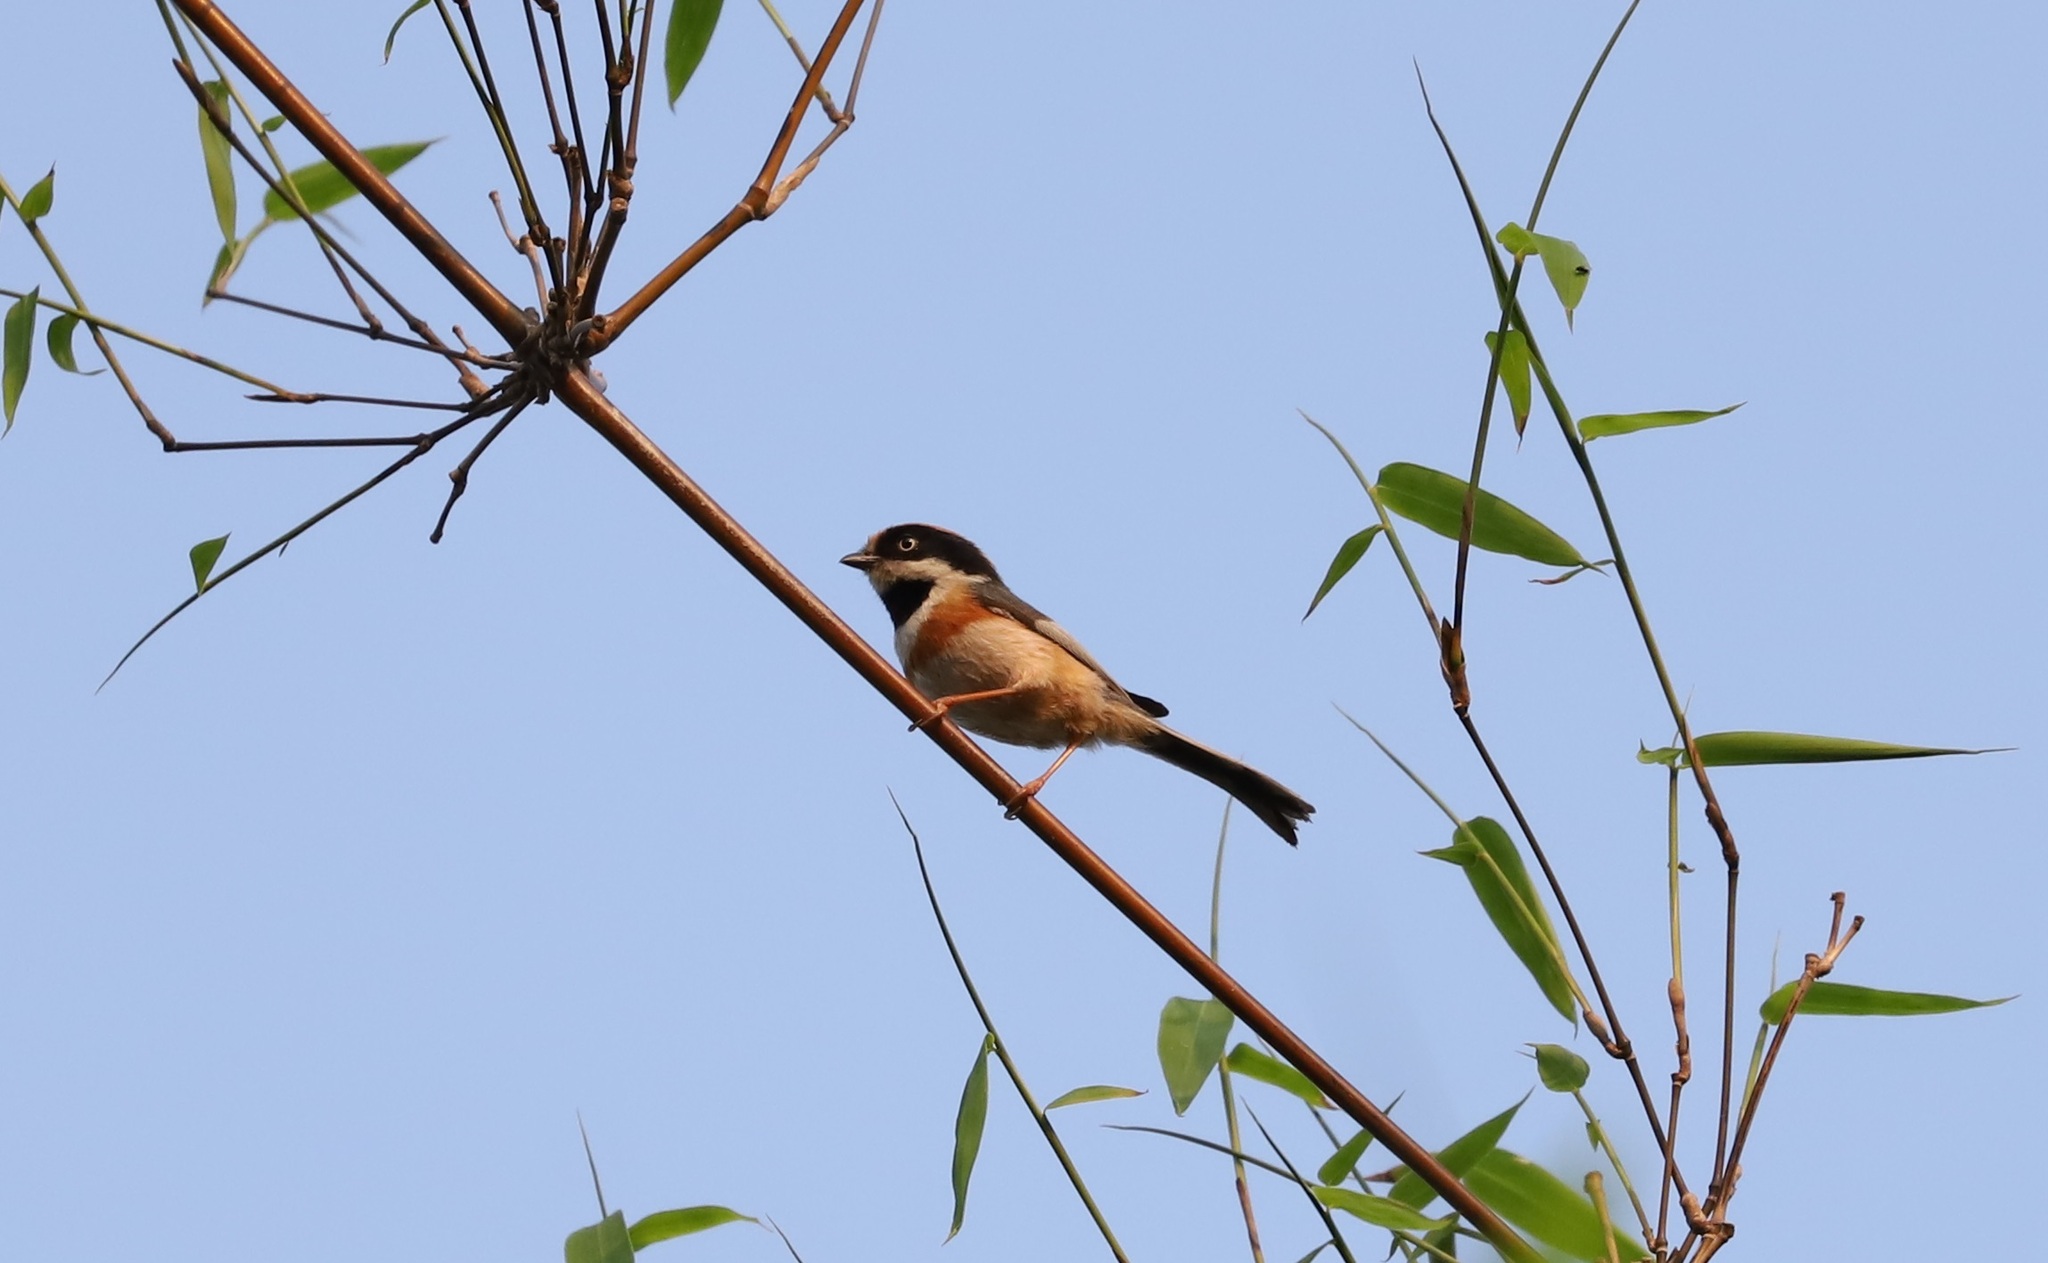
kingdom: Animalia
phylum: Chordata
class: Aves
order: Passeriformes
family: Aegithalidae
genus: Aegithalos
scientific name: Aegithalos concinnus
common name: Black-throated bushtit
